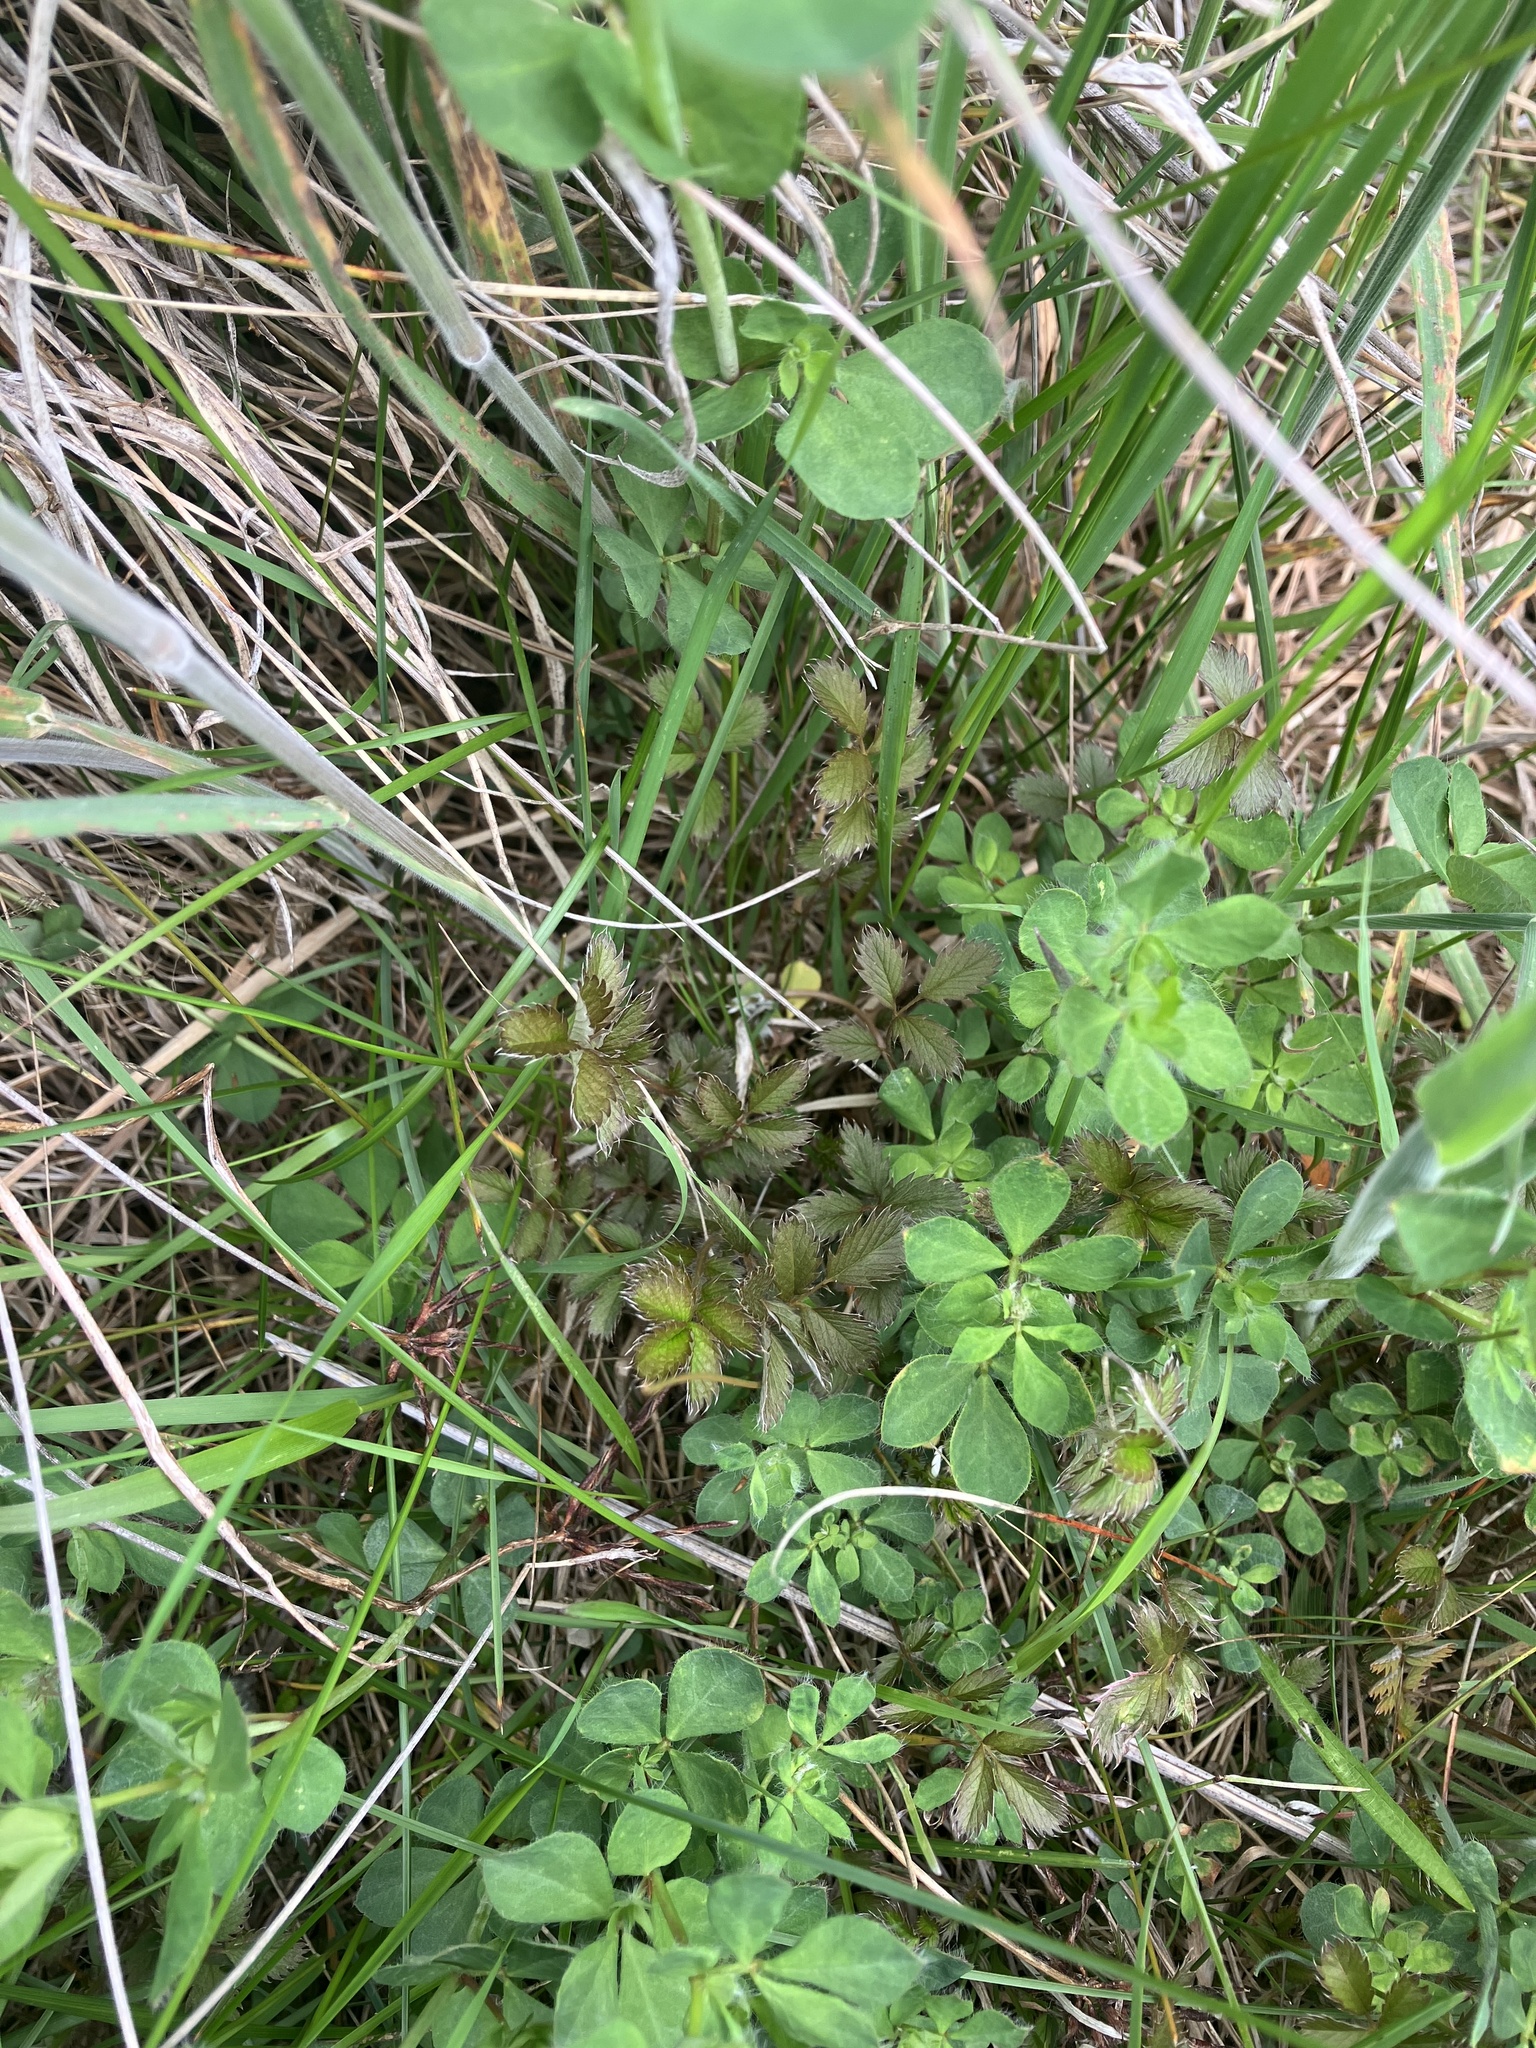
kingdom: Plantae
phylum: Tracheophyta
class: Magnoliopsida
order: Rosales
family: Rosaceae
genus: Argentina
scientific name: Argentina anserinoides
